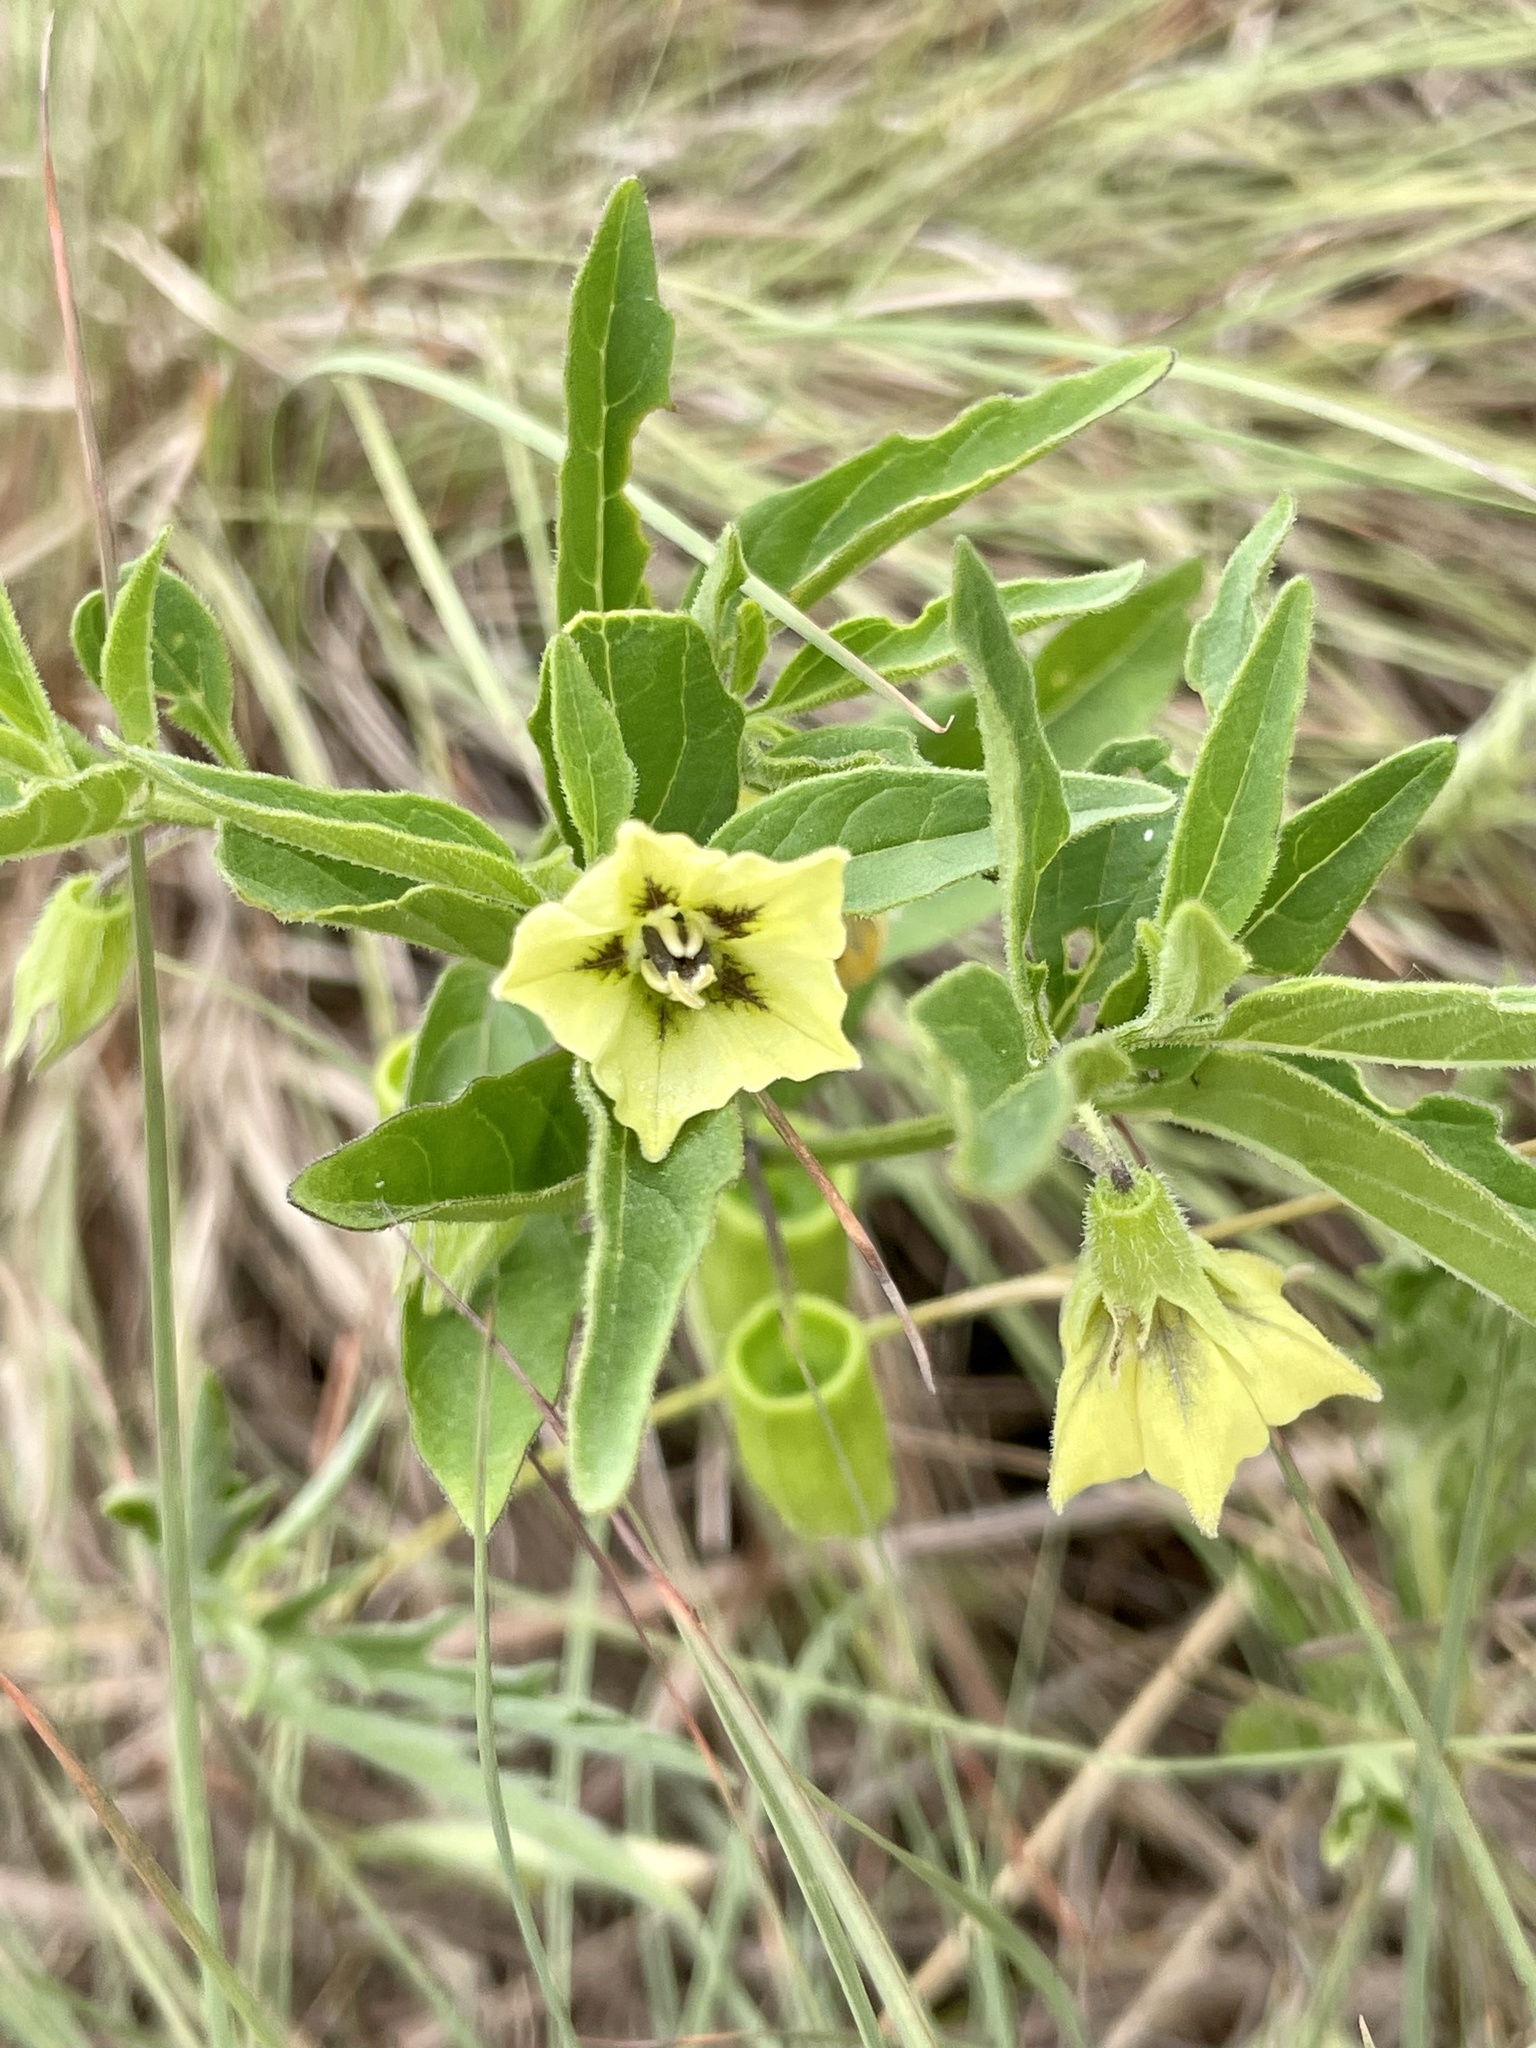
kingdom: Plantae
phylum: Tracheophyta
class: Magnoliopsida
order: Solanales
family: Solanaceae
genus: Physalis
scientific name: Physalis virginiana
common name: Virginia ground-cherry
